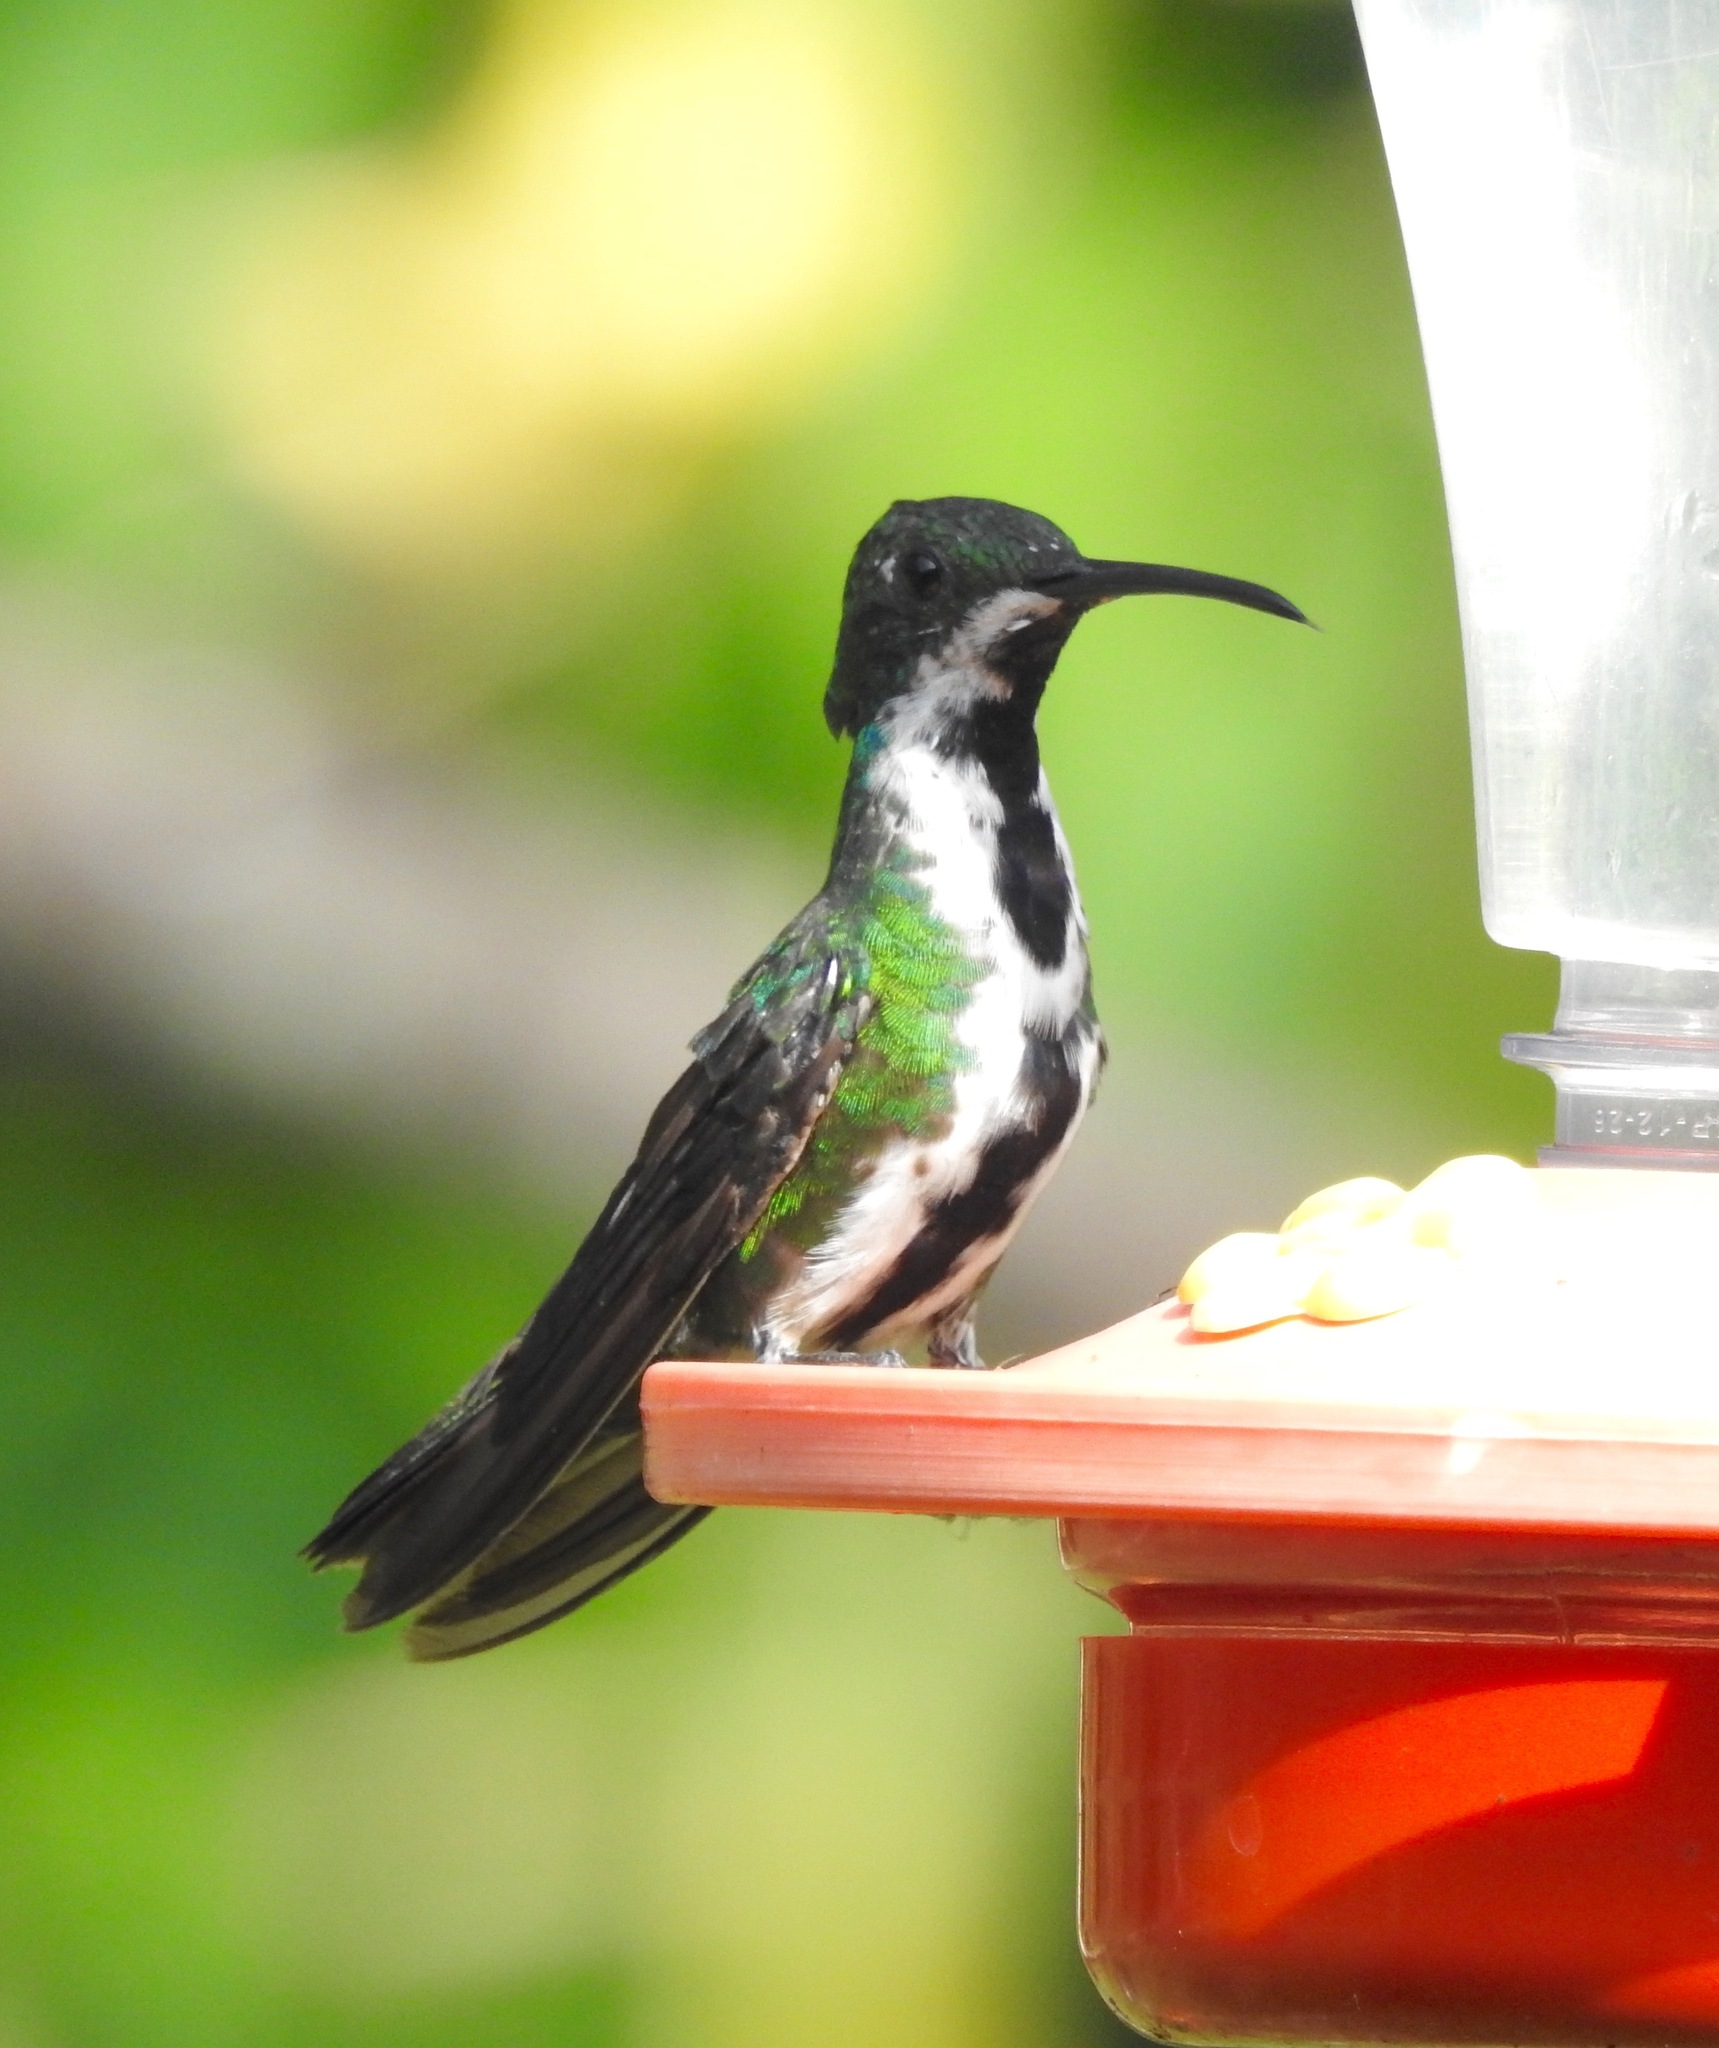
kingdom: Animalia
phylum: Chordata
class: Aves
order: Apodiformes
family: Trochilidae
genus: Anthracothorax
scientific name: Anthracothorax nigricollis
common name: Black-throated mango
